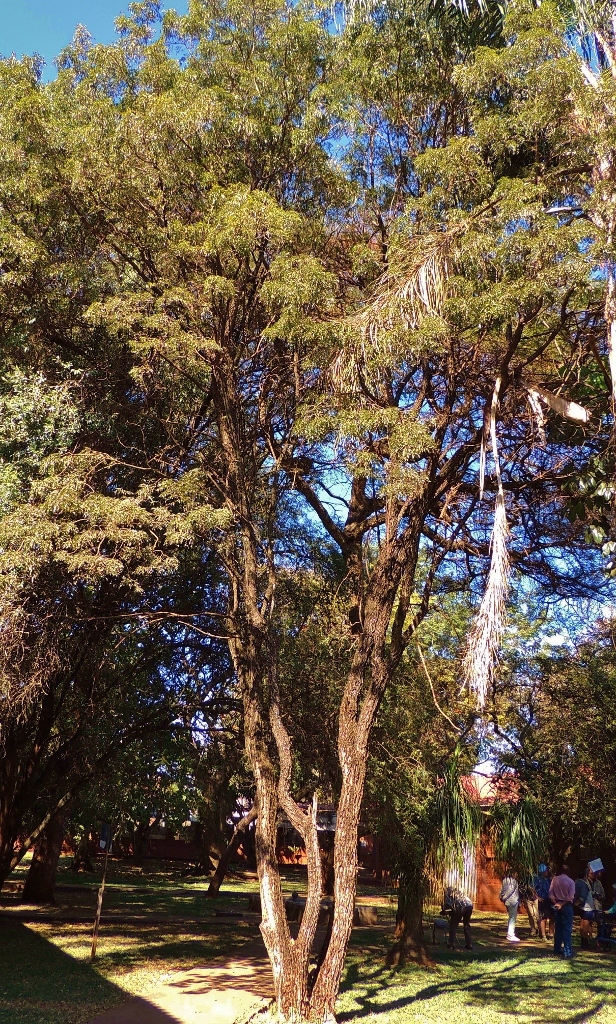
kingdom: Plantae
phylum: Tracheophyta
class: Magnoliopsida
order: Fabales
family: Fabaceae
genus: Bolusanthus
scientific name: Bolusanthus speciosus
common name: Tree wisteria
